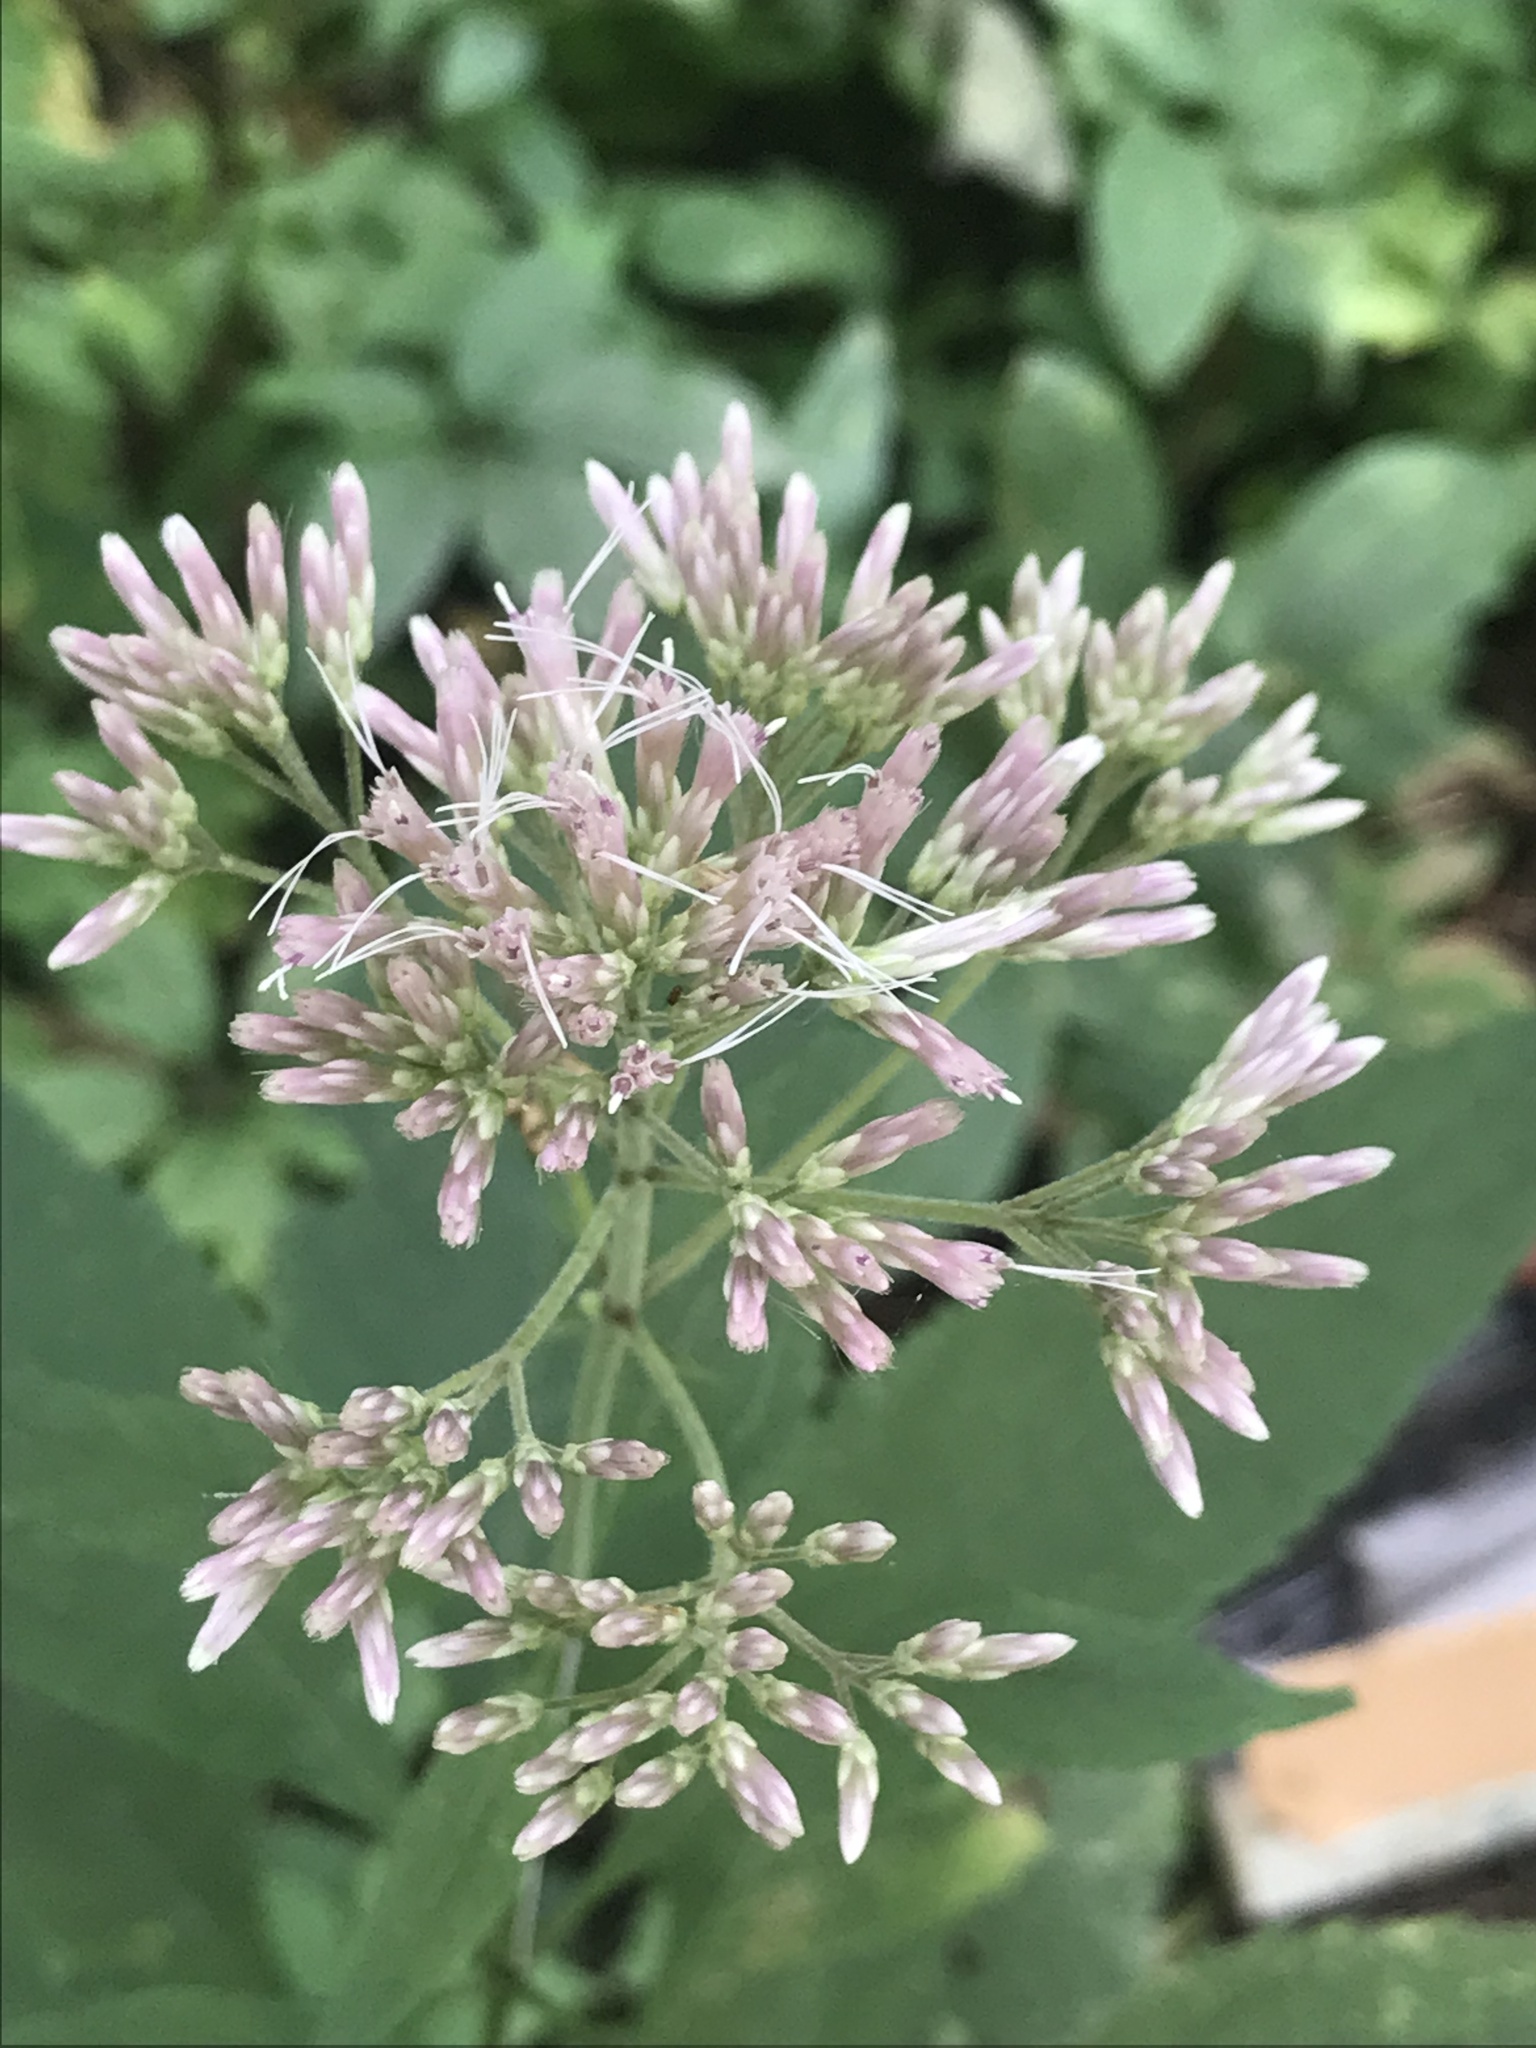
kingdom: Plantae
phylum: Tracheophyta
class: Magnoliopsida
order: Asterales
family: Asteraceae
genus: Eutrochium
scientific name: Eutrochium purpureum
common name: Gravelroot
